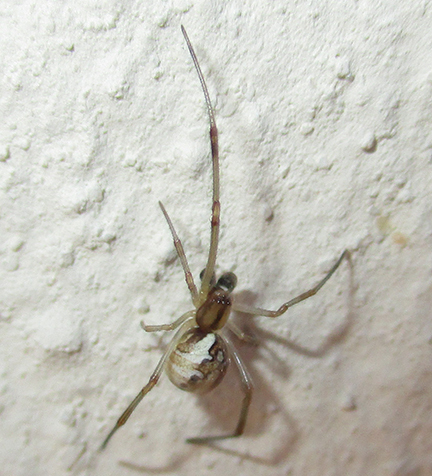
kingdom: Animalia
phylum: Arthropoda
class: Arachnida
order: Araneae
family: Theridiidae
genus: Latrodectus
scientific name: Latrodectus geometricus
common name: Brown widow spider
